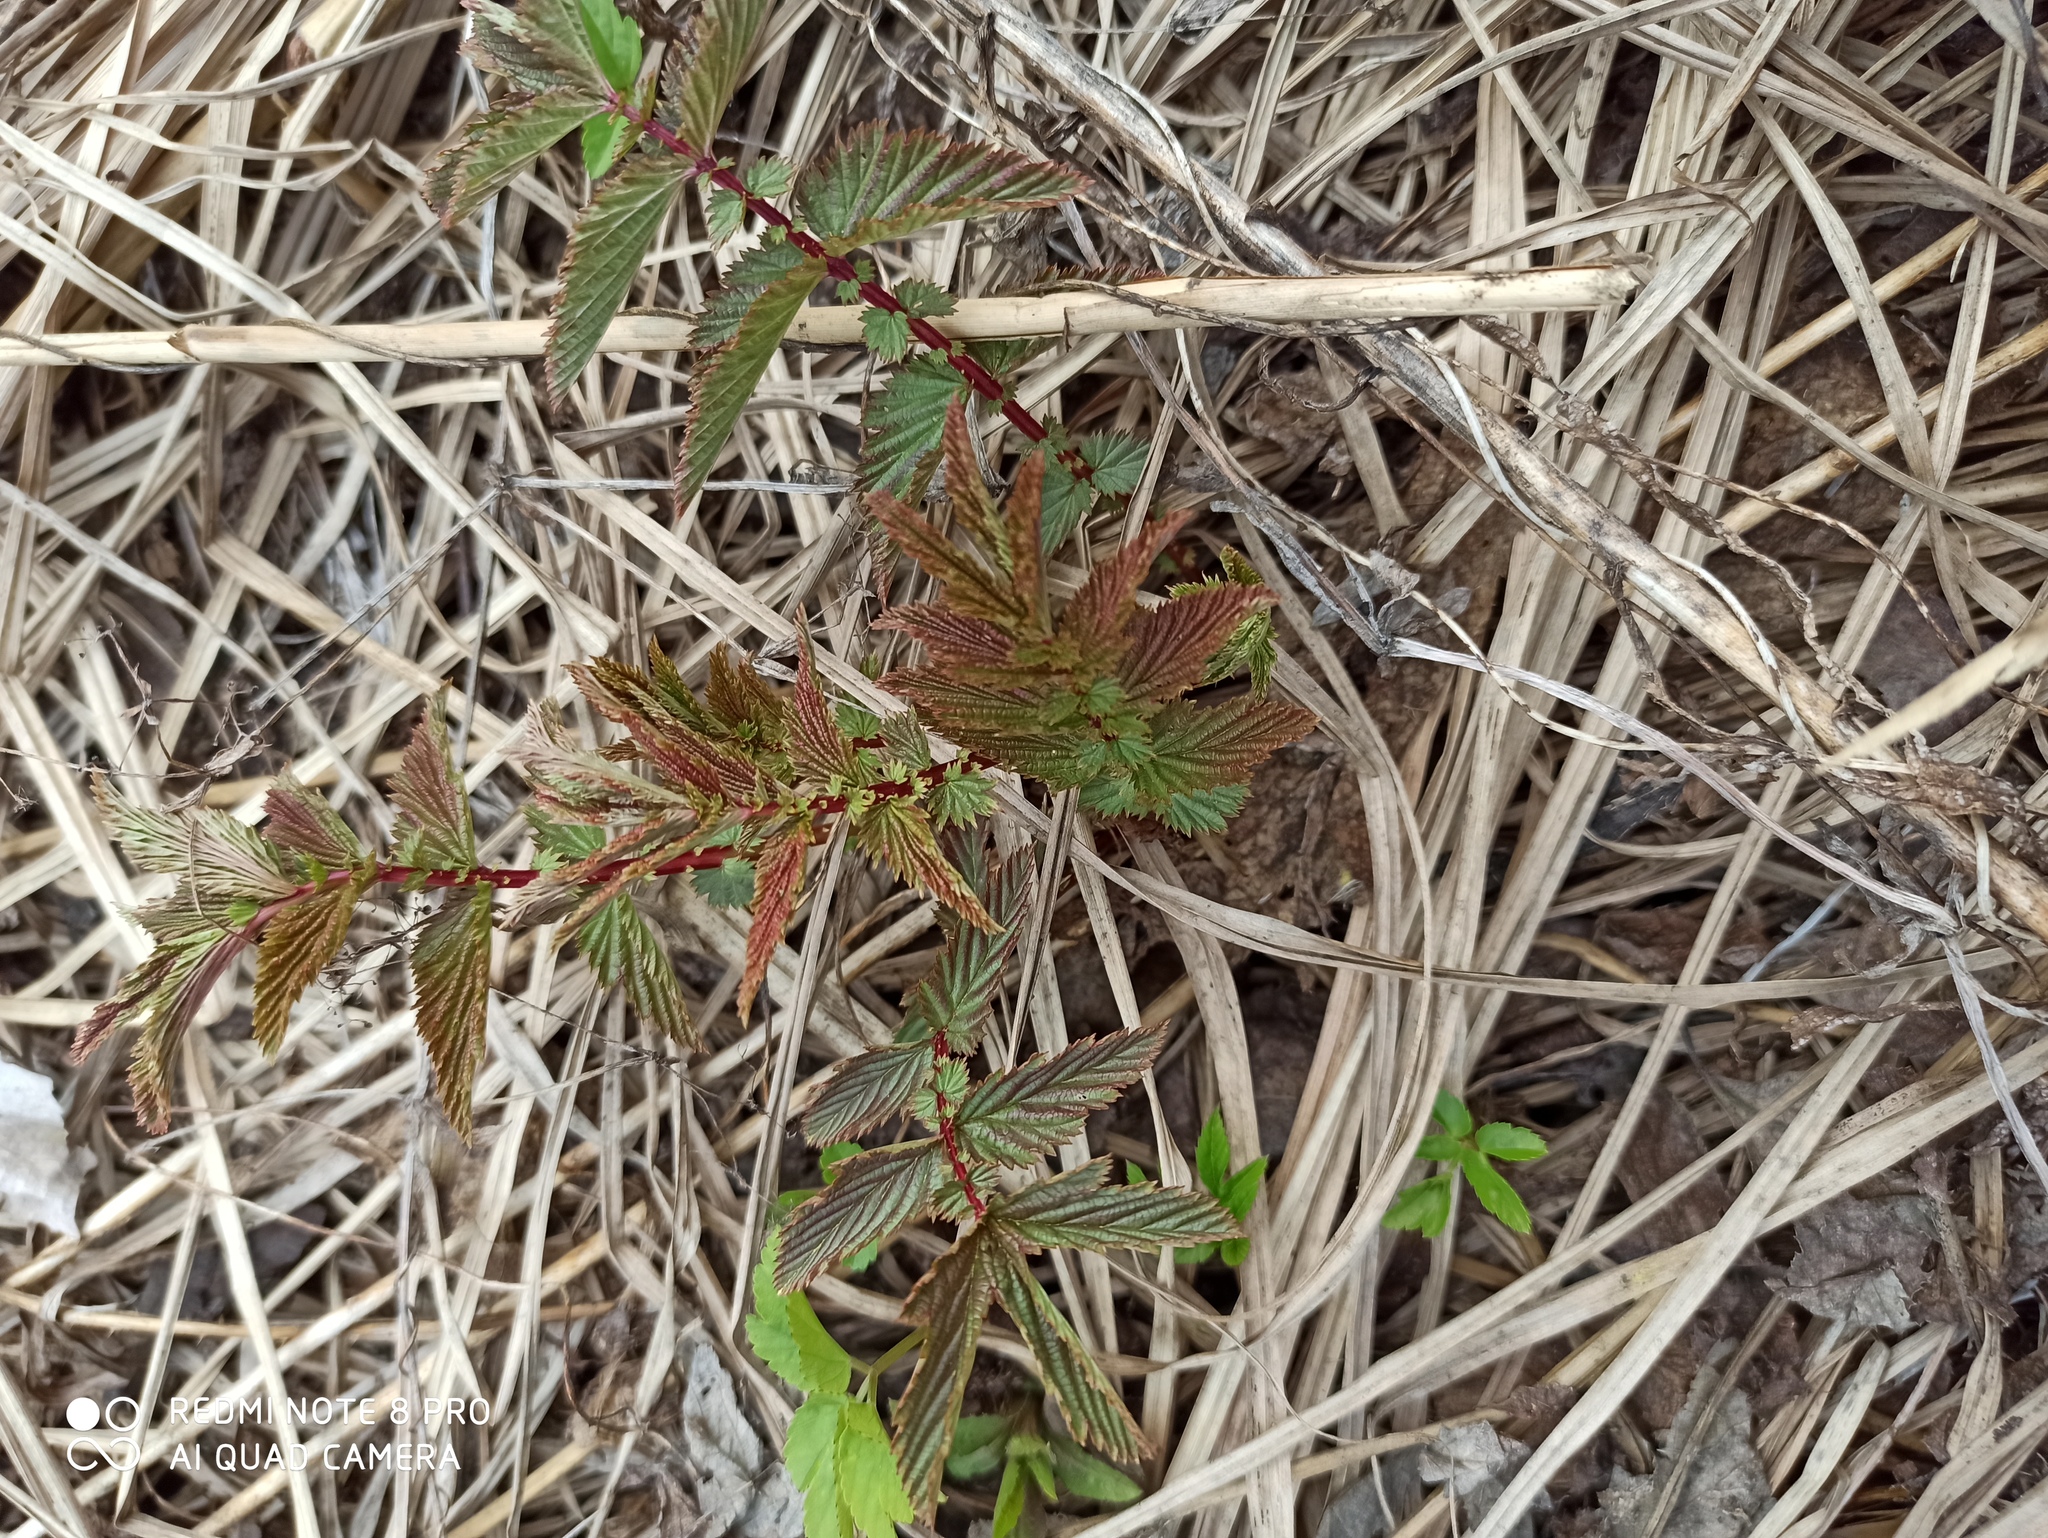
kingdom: Plantae
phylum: Tracheophyta
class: Magnoliopsida
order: Rosales
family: Rosaceae
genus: Filipendula
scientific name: Filipendula ulmaria
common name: Meadowsweet
